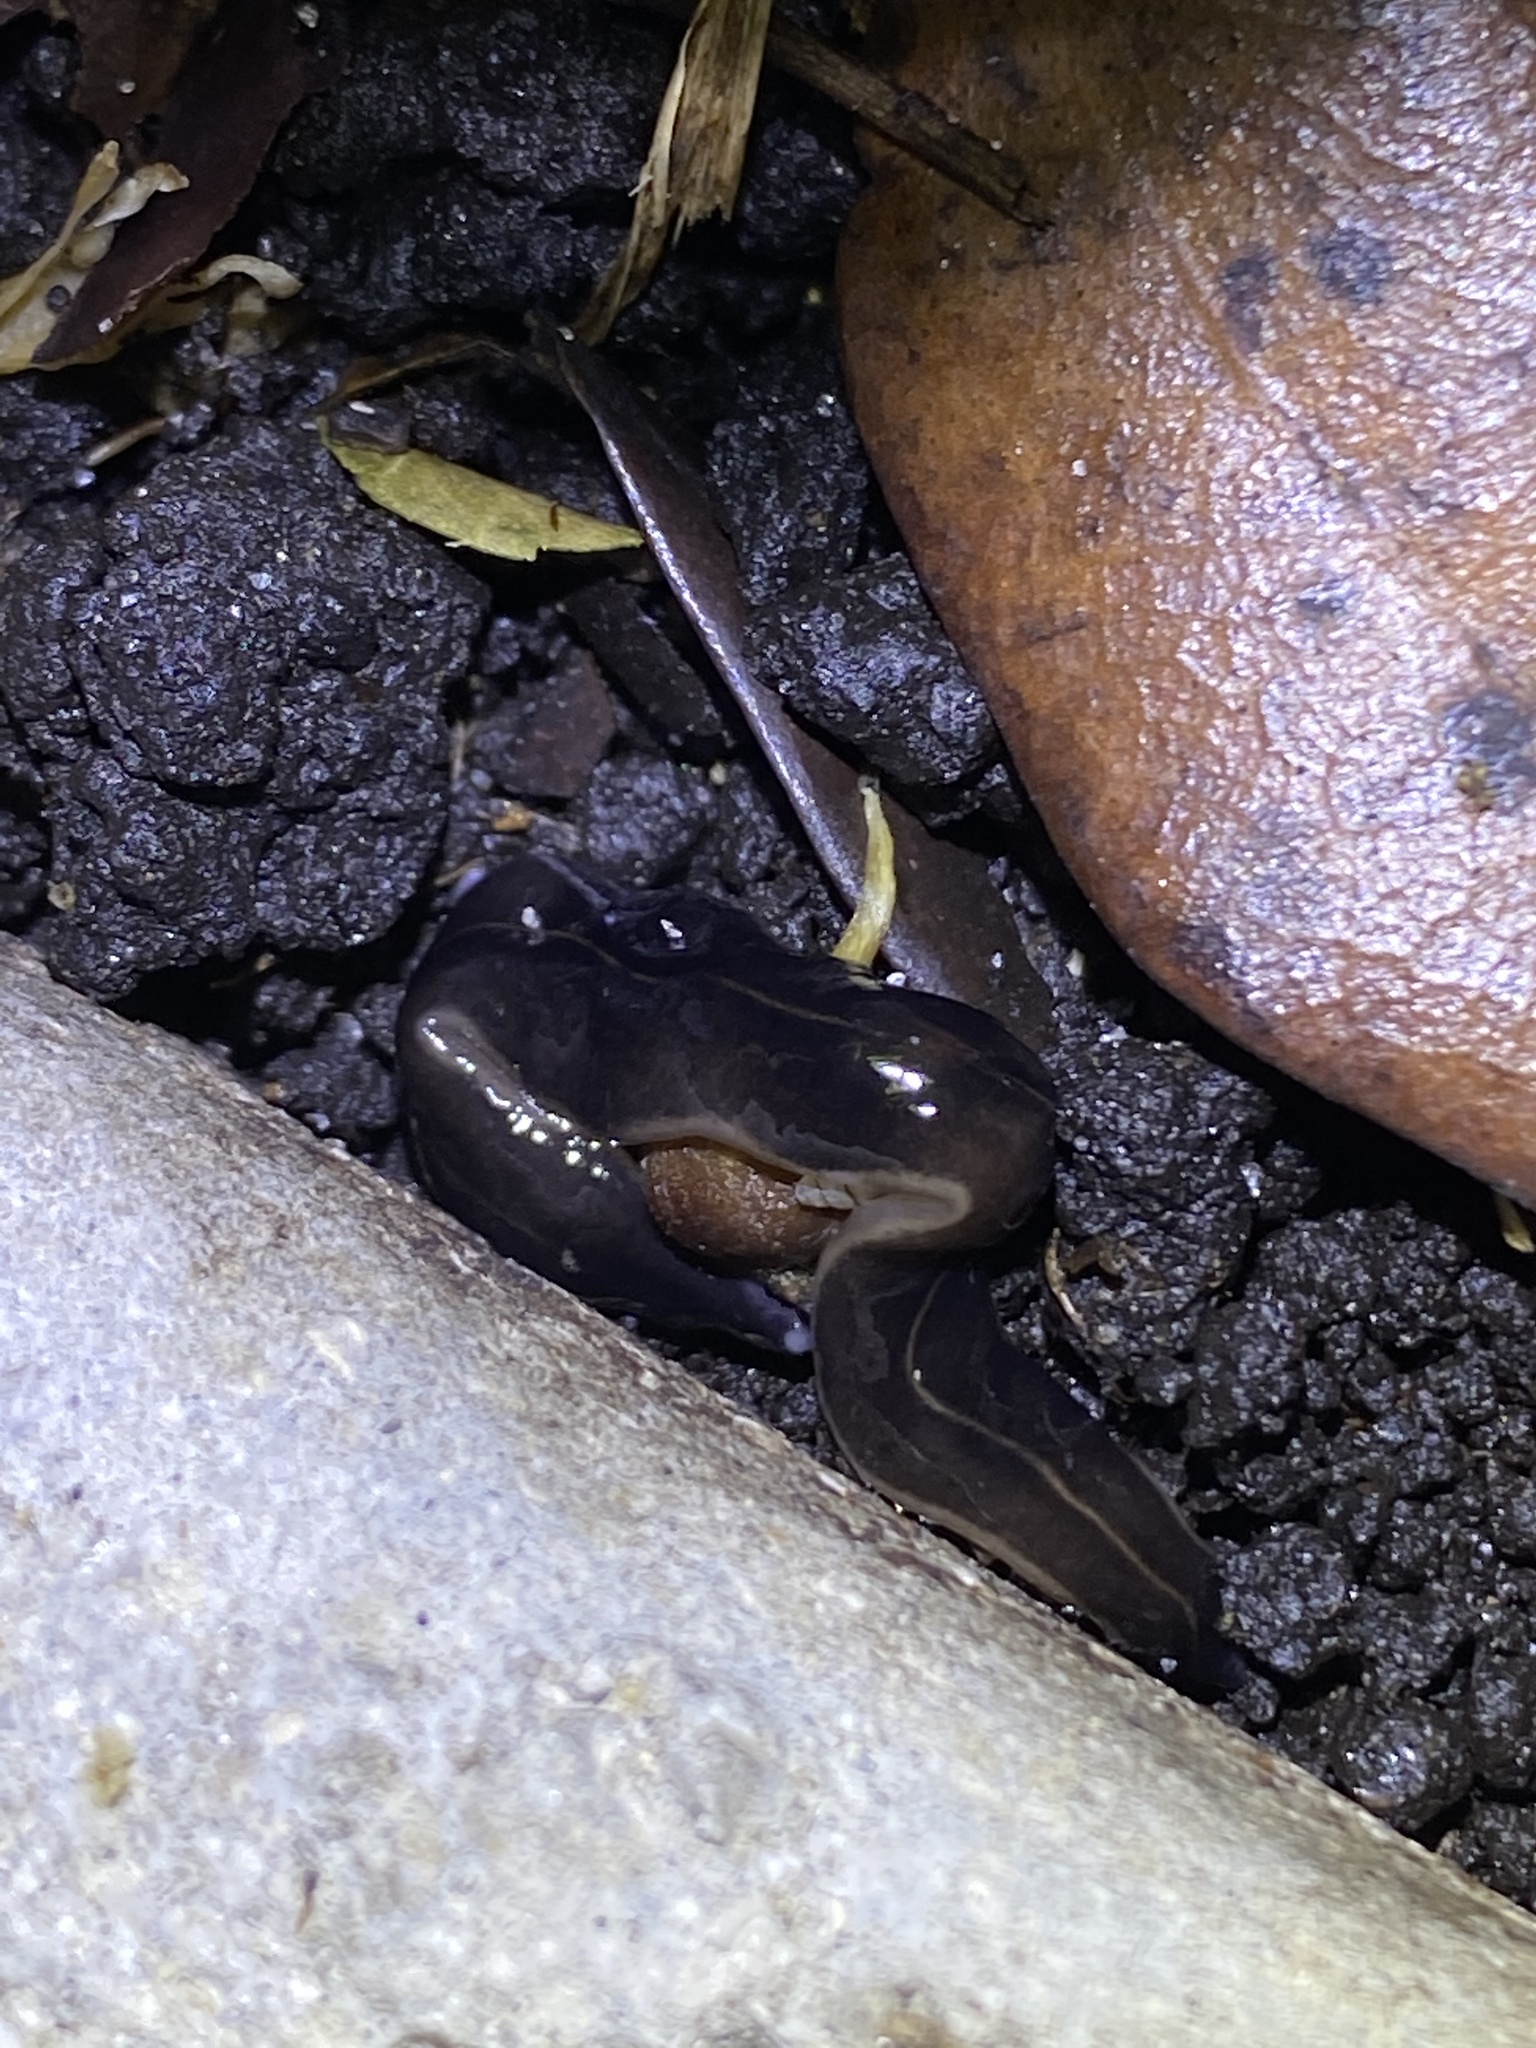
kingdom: Animalia
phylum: Platyhelminthes
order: Tricladida
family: Geoplanidae
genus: Platydemus
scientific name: Platydemus manokwari
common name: New guinea flatworm
